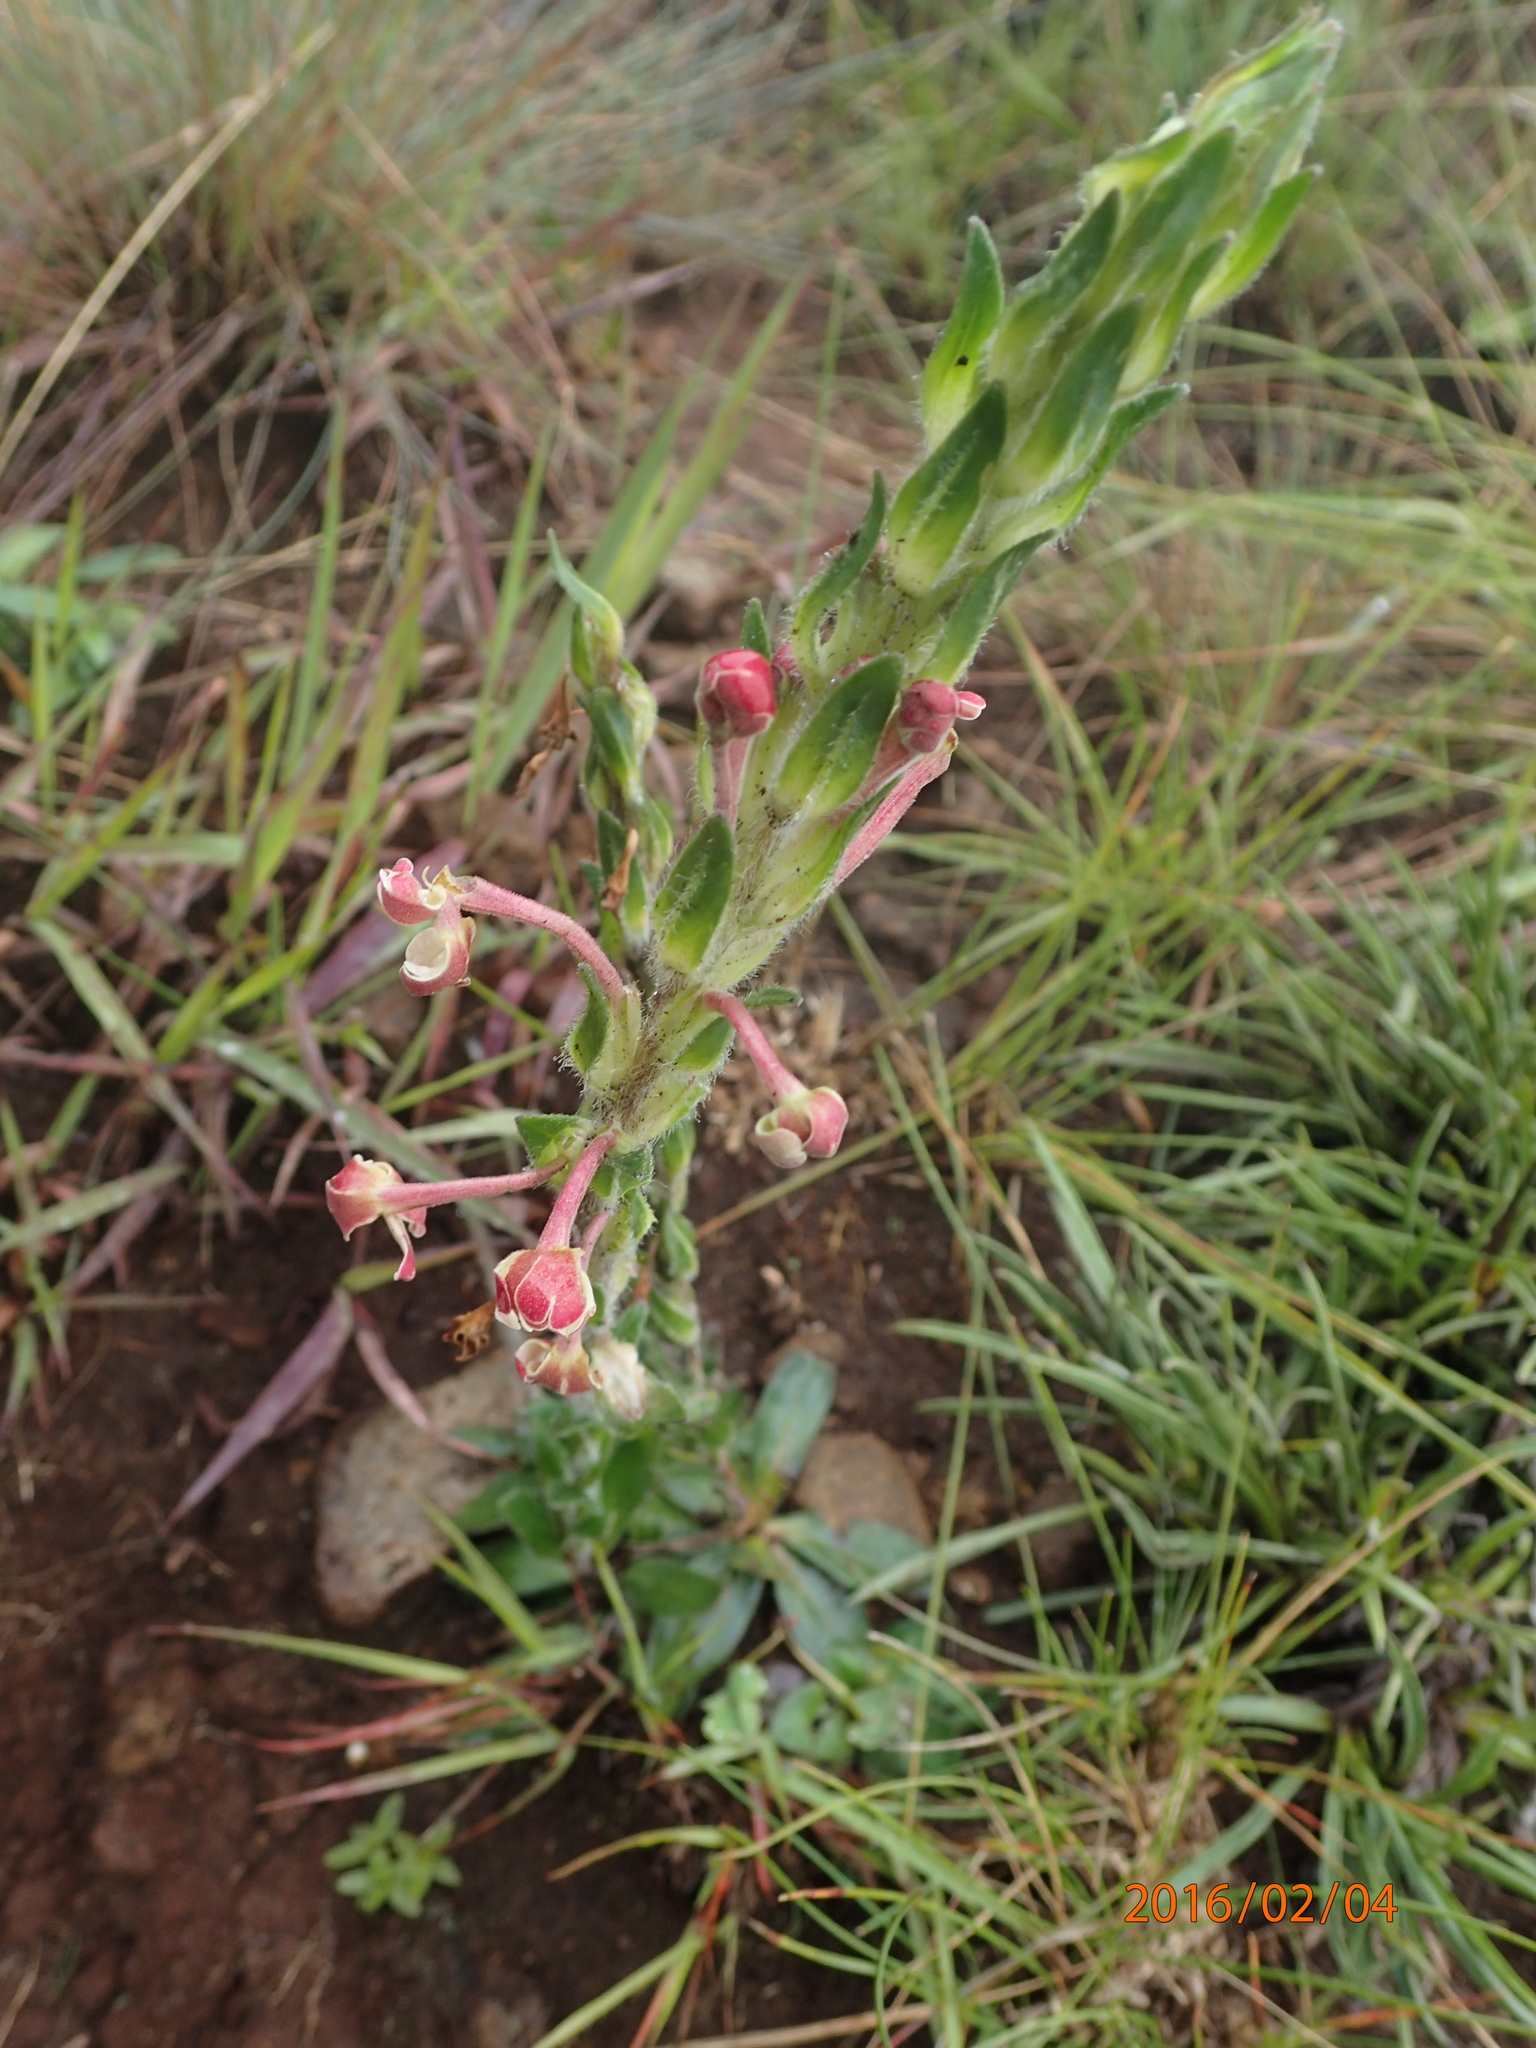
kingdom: Plantae
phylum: Tracheophyta
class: Magnoliopsida
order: Lamiales
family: Scrophulariaceae
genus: Zaluzianskya
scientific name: Zaluzianskya microsiphon
